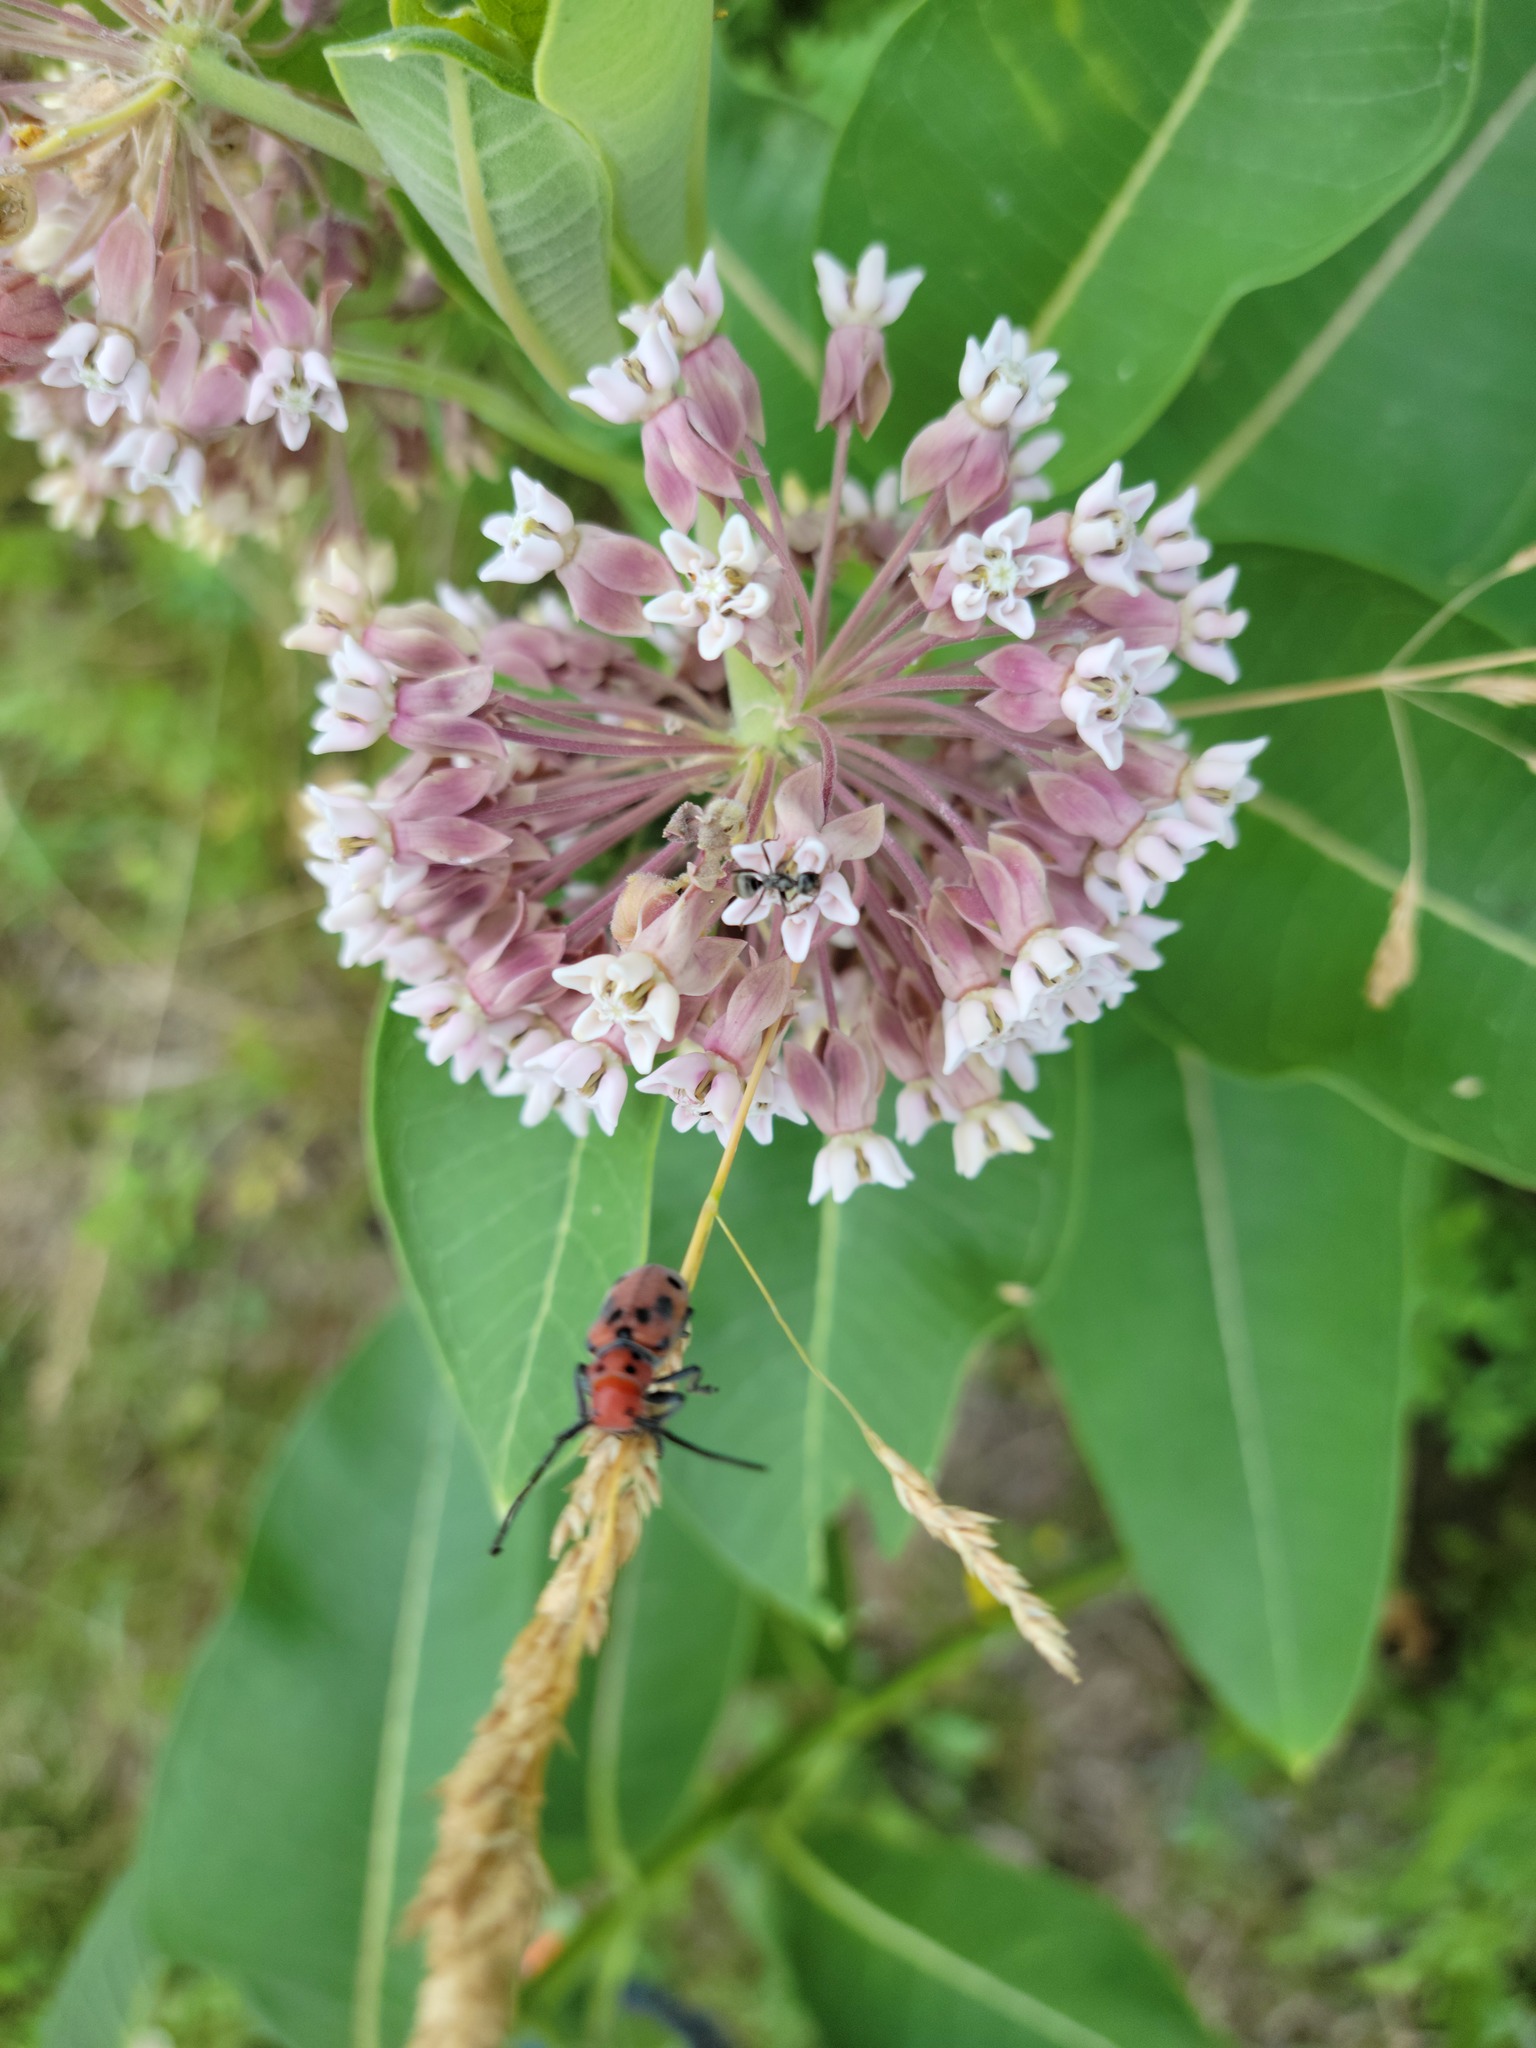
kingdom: Animalia
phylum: Arthropoda
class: Insecta
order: Coleoptera
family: Cerambycidae
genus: Tetraopes
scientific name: Tetraopes tetrophthalmus
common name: Red milkweed beetle
